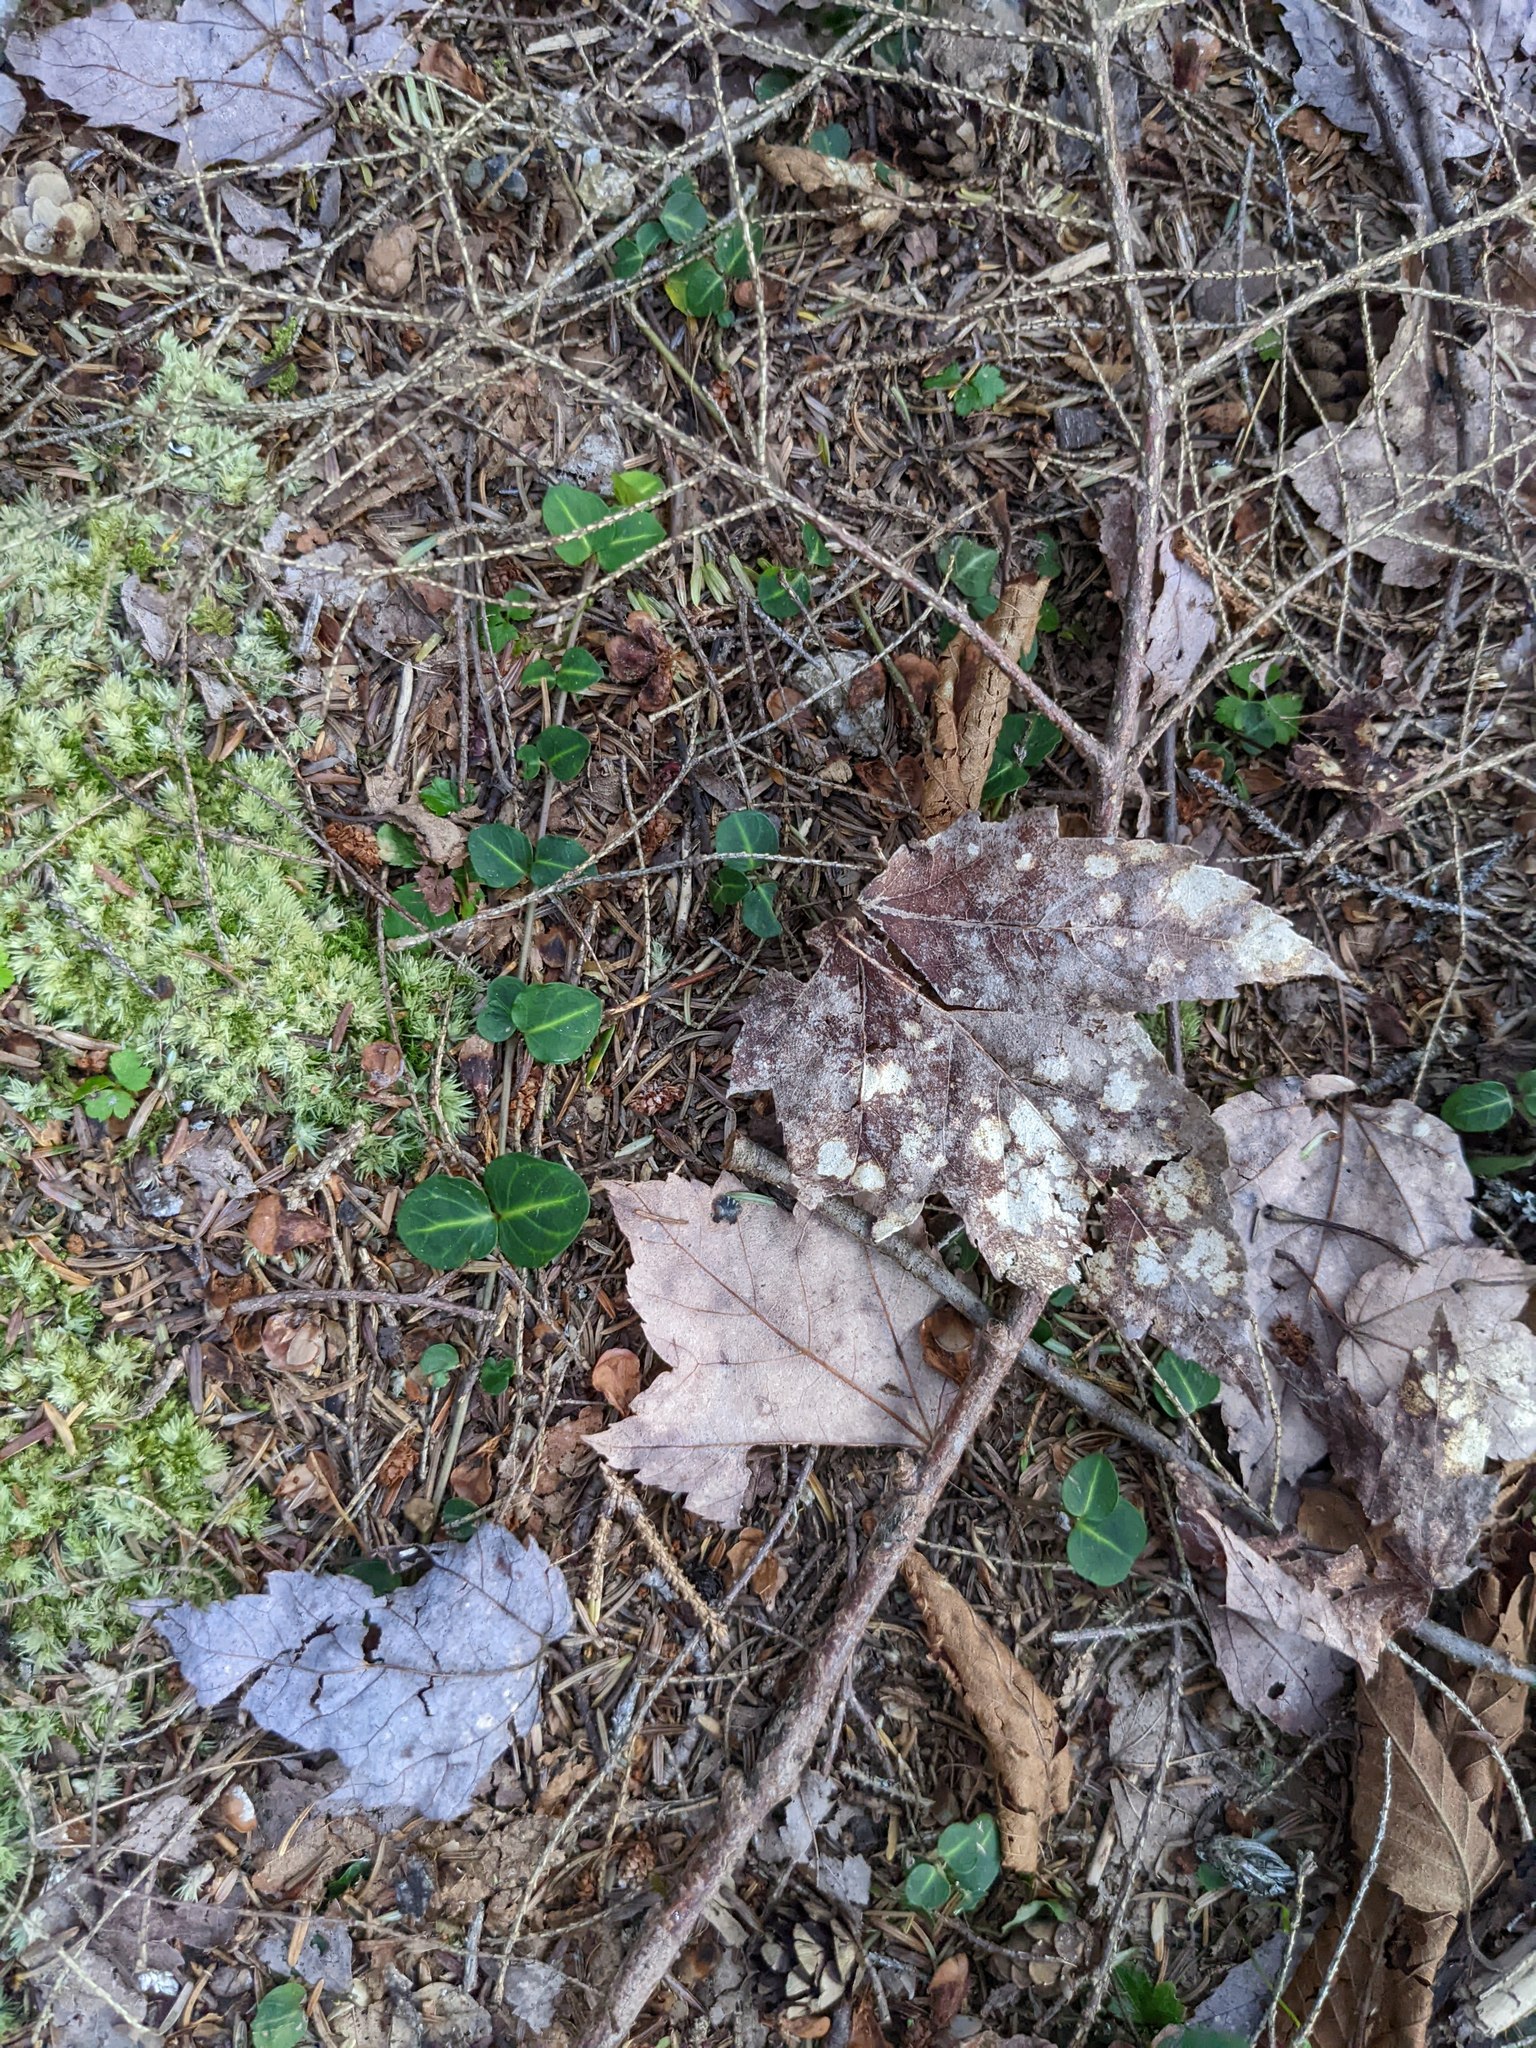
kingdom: Plantae
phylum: Tracheophyta
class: Magnoliopsida
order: Gentianales
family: Rubiaceae
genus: Mitchella
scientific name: Mitchella repens
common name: Partridge-berry
